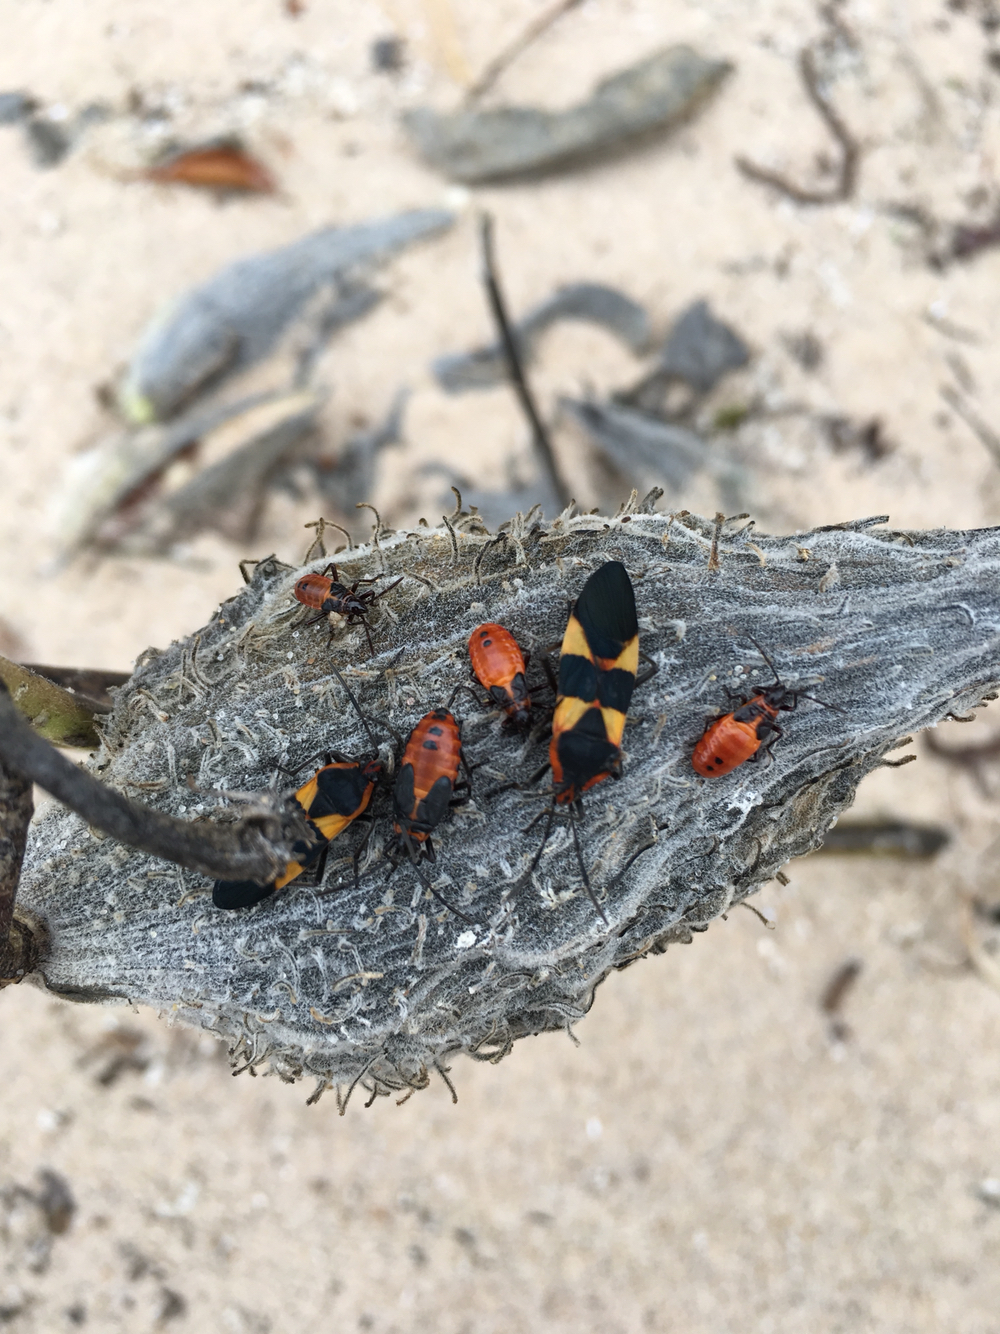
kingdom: Animalia
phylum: Arthropoda
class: Insecta
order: Hemiptera
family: Lygaeidae
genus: Oncopeltus
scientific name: Oncopeltus fasciatus
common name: Large milkweed bug
